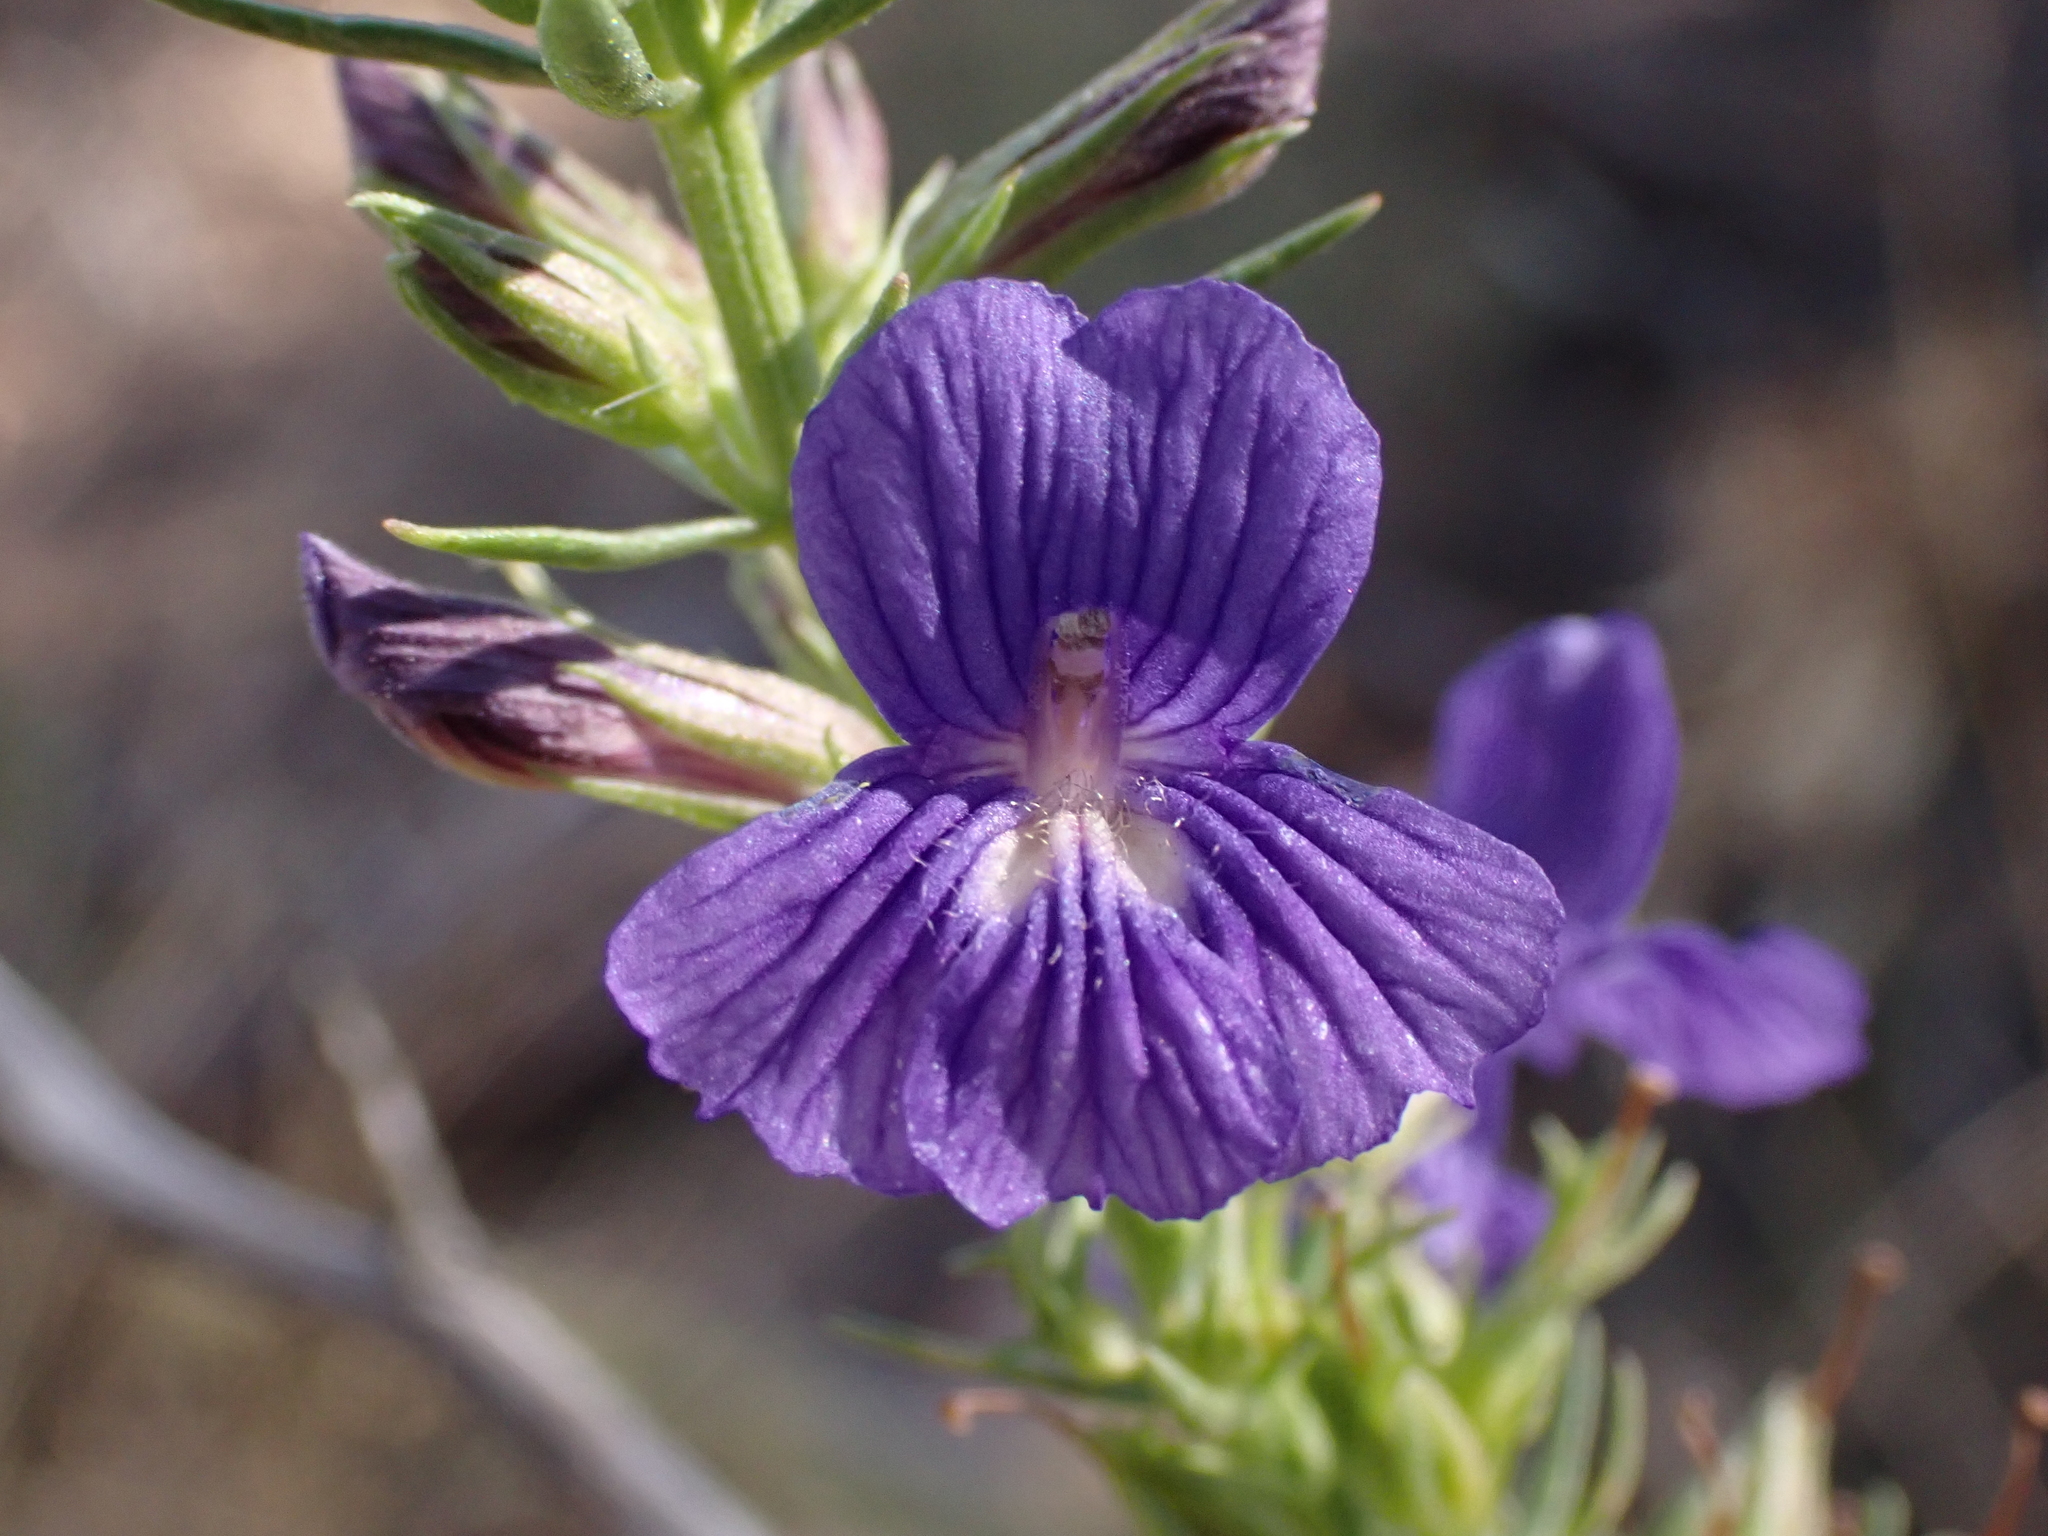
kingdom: Plantae
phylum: Tracheophyta
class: Magnoliopsida
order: Lamiales
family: Plantaginaceae
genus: Stemodia
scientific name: Stemodia florulenta
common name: Bluerod
